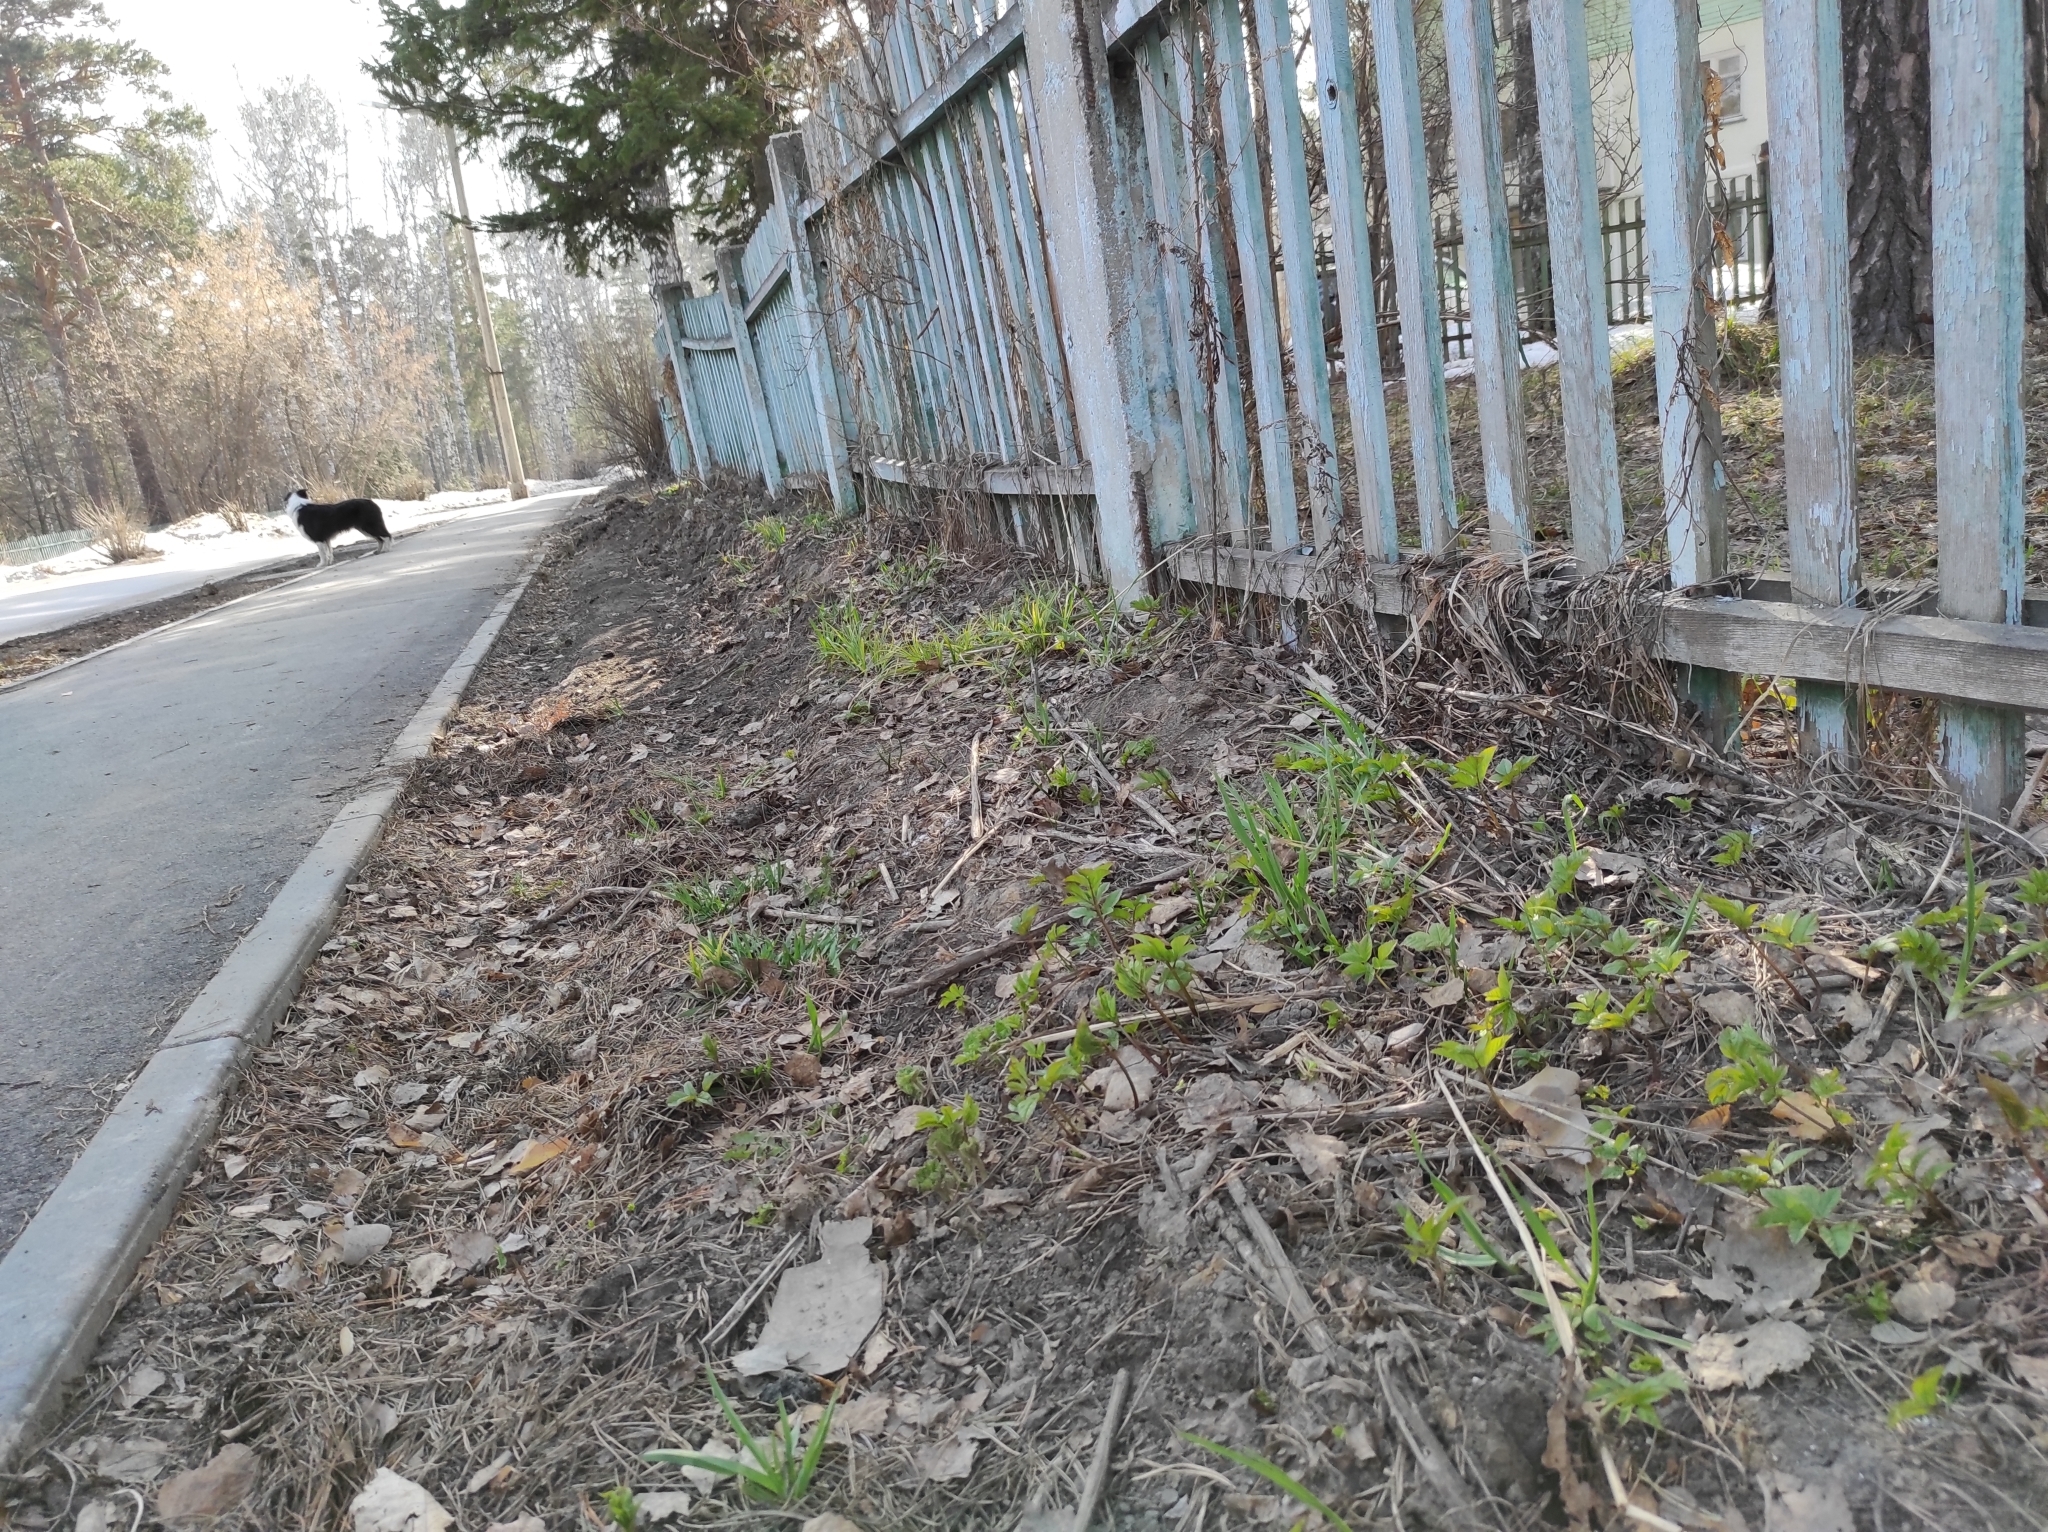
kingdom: Plantae
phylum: Tracheophyta
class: Magnoliopsida
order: Apiales
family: Apiaceae
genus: Aegopodium
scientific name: Aegopodium podagraria
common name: Ground-elder
